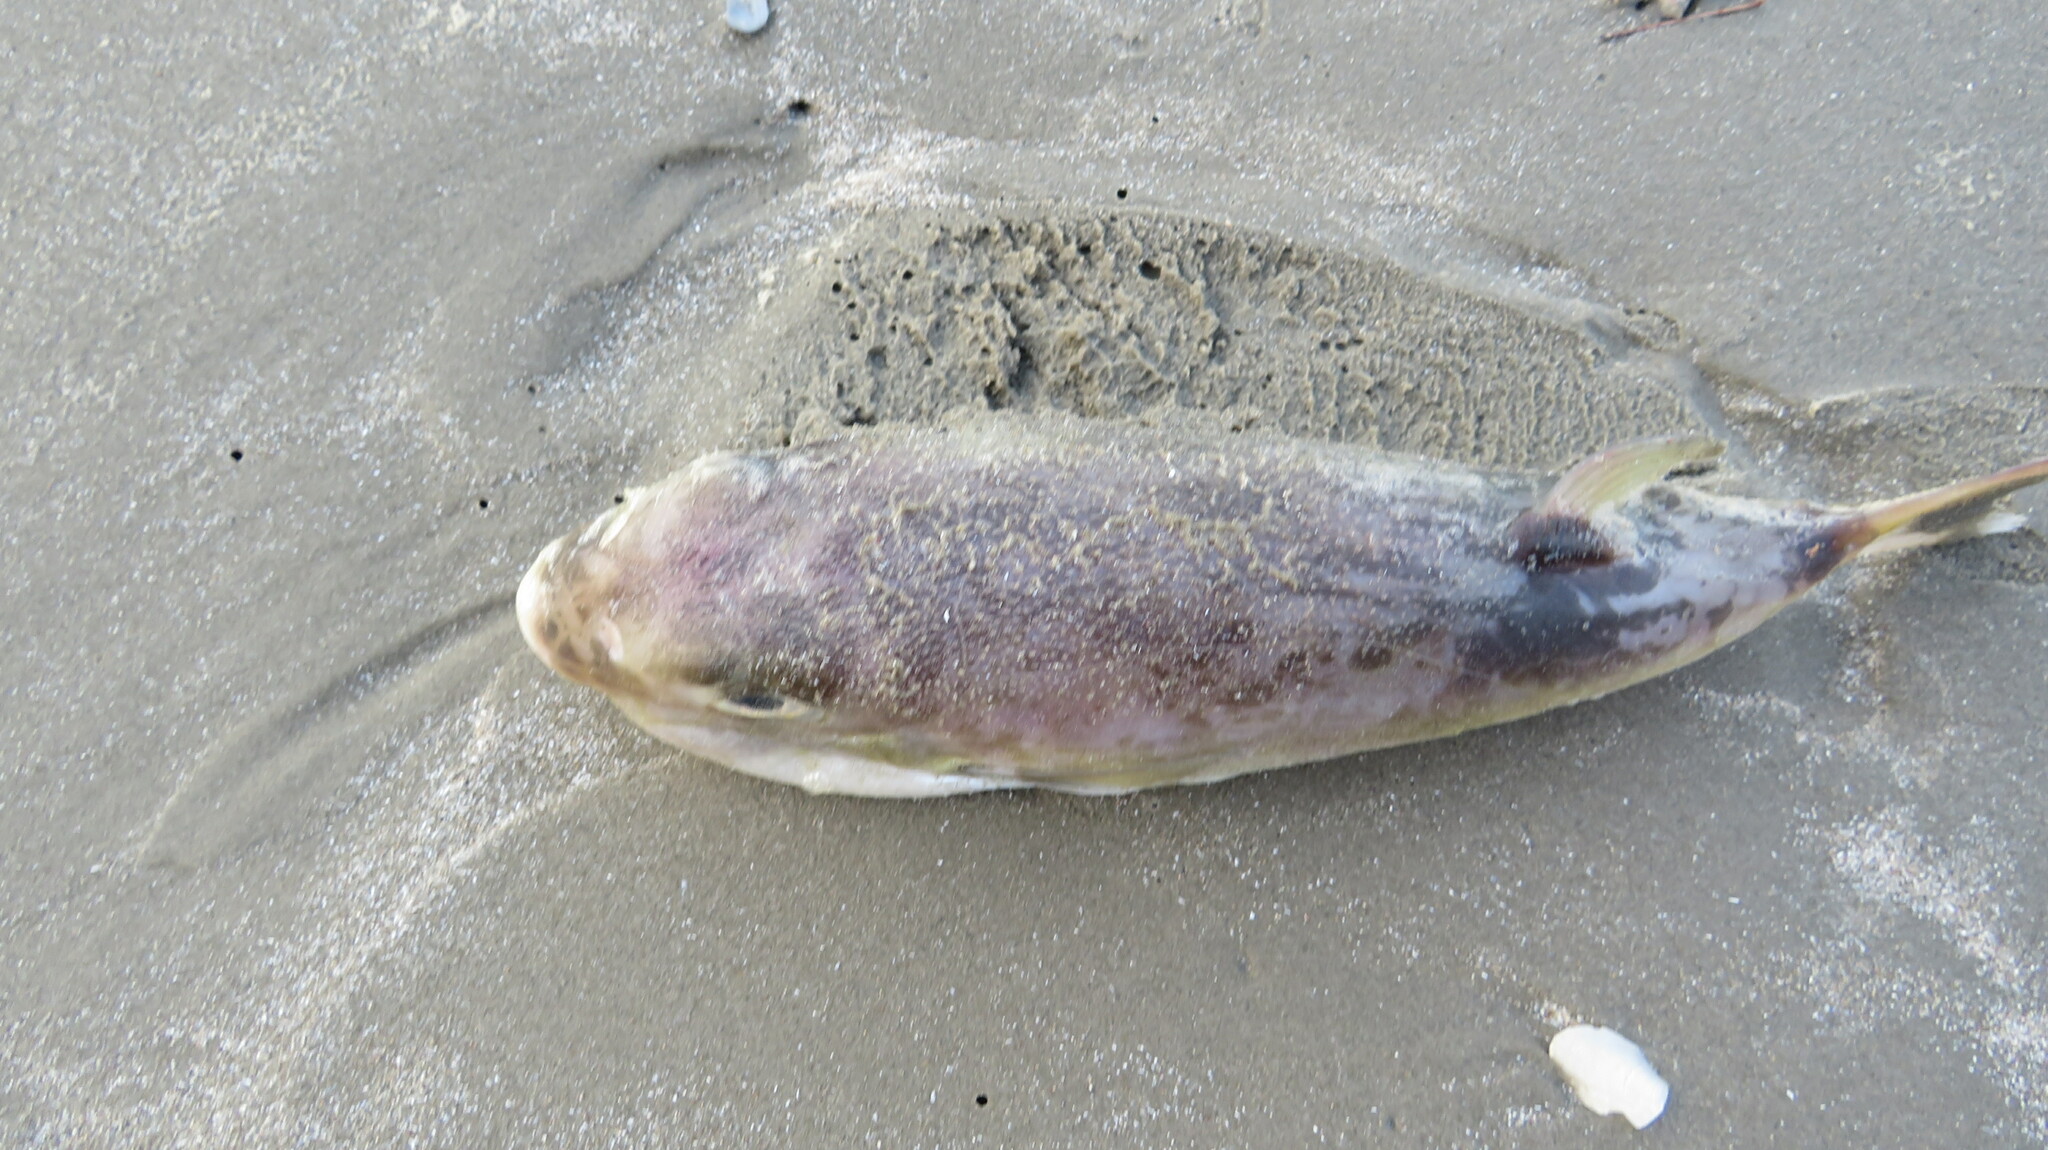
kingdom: Animalia
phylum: Chordata
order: Tetraodontiformes
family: Tetraodontidae
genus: Lagocephalus
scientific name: Lagocephalus lunaris
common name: Green rrough-backed puffer
